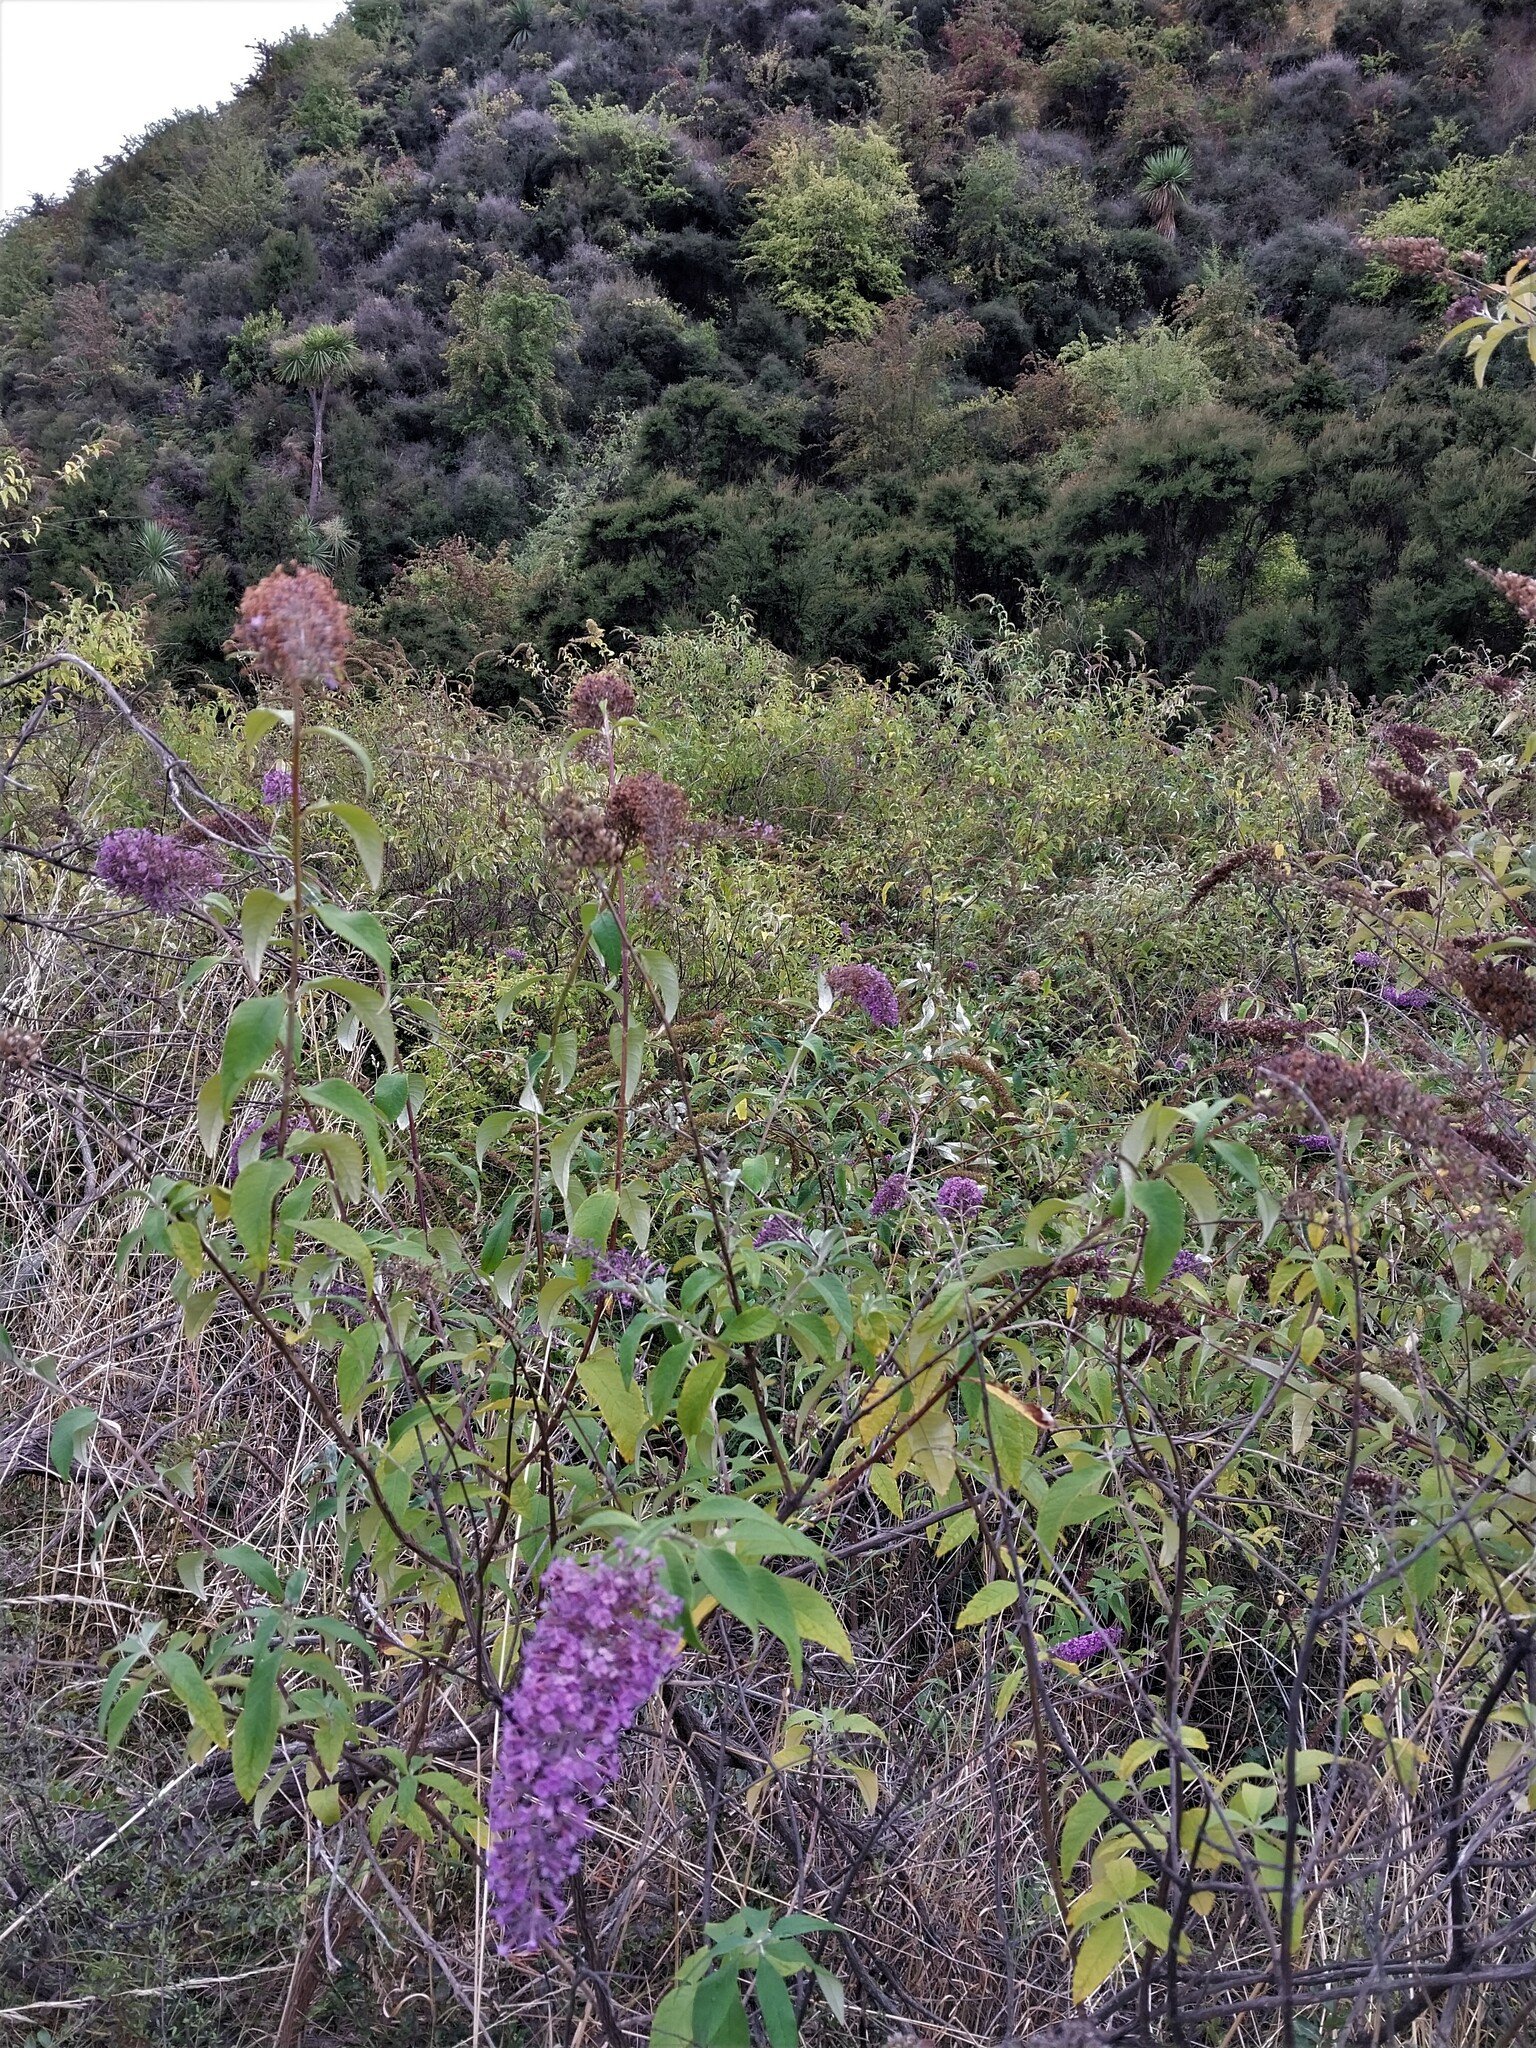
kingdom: Plantae
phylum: Tracheophyta
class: Magnoliopsida
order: Lamiales
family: Scrophulariaceae
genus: Buddleja
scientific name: Buddleja davidii
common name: Butterfly-bush
